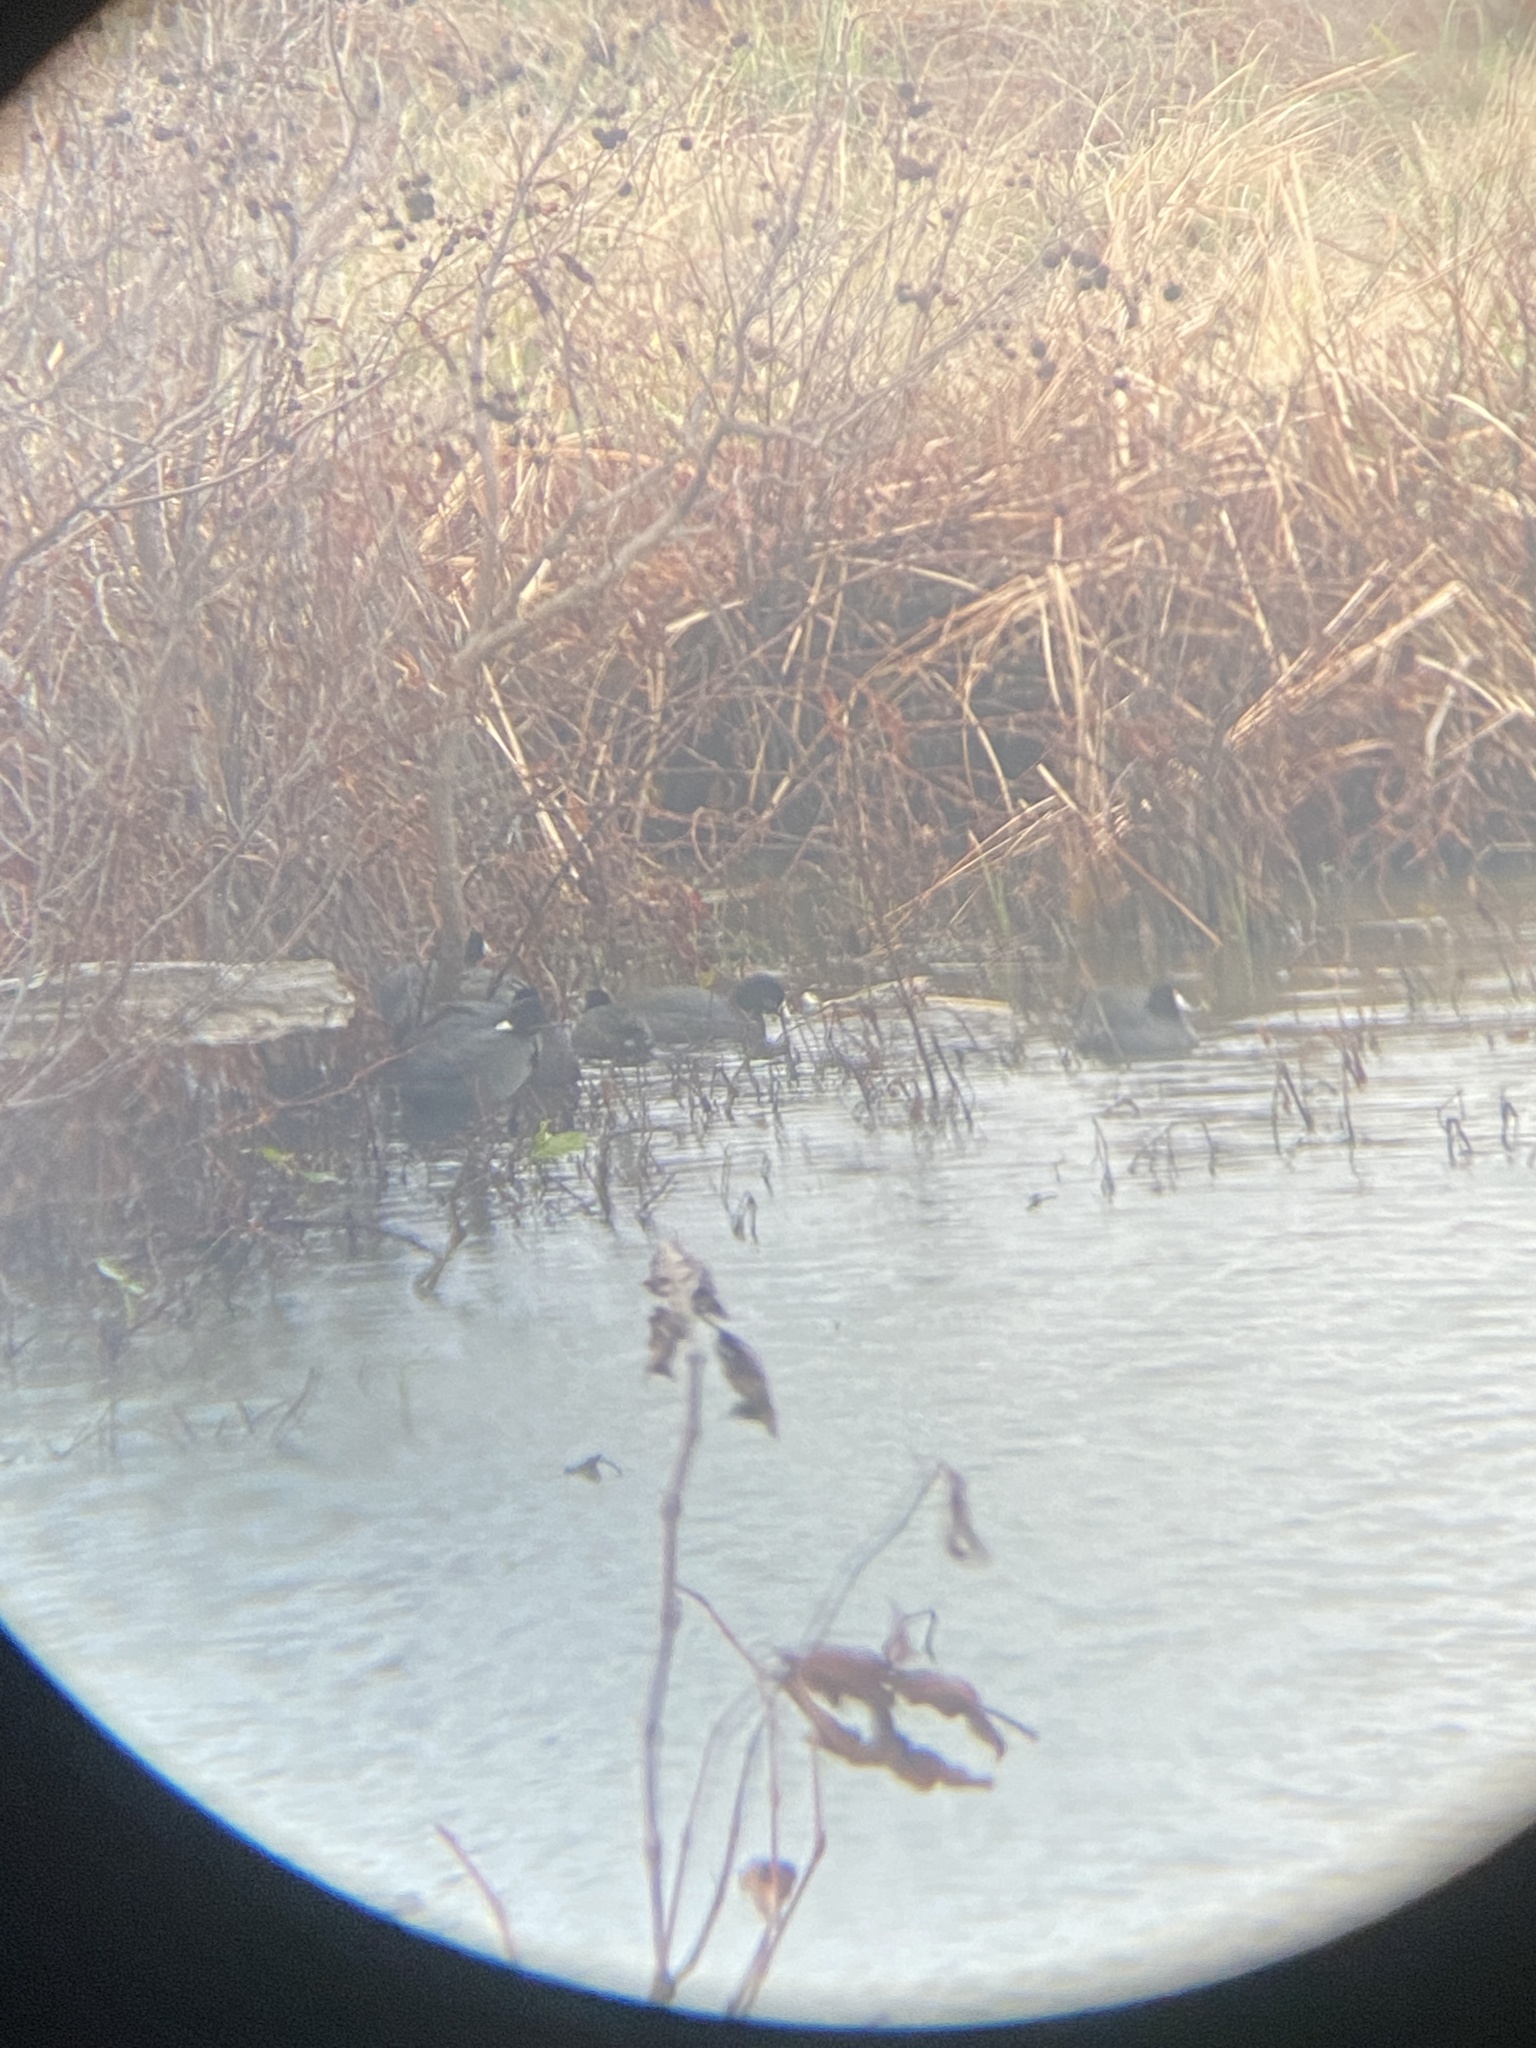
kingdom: Animalia
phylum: Chordata
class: Aves
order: Gruiformes
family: Rallidae
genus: Fulica
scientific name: Fulica americana
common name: American coot
